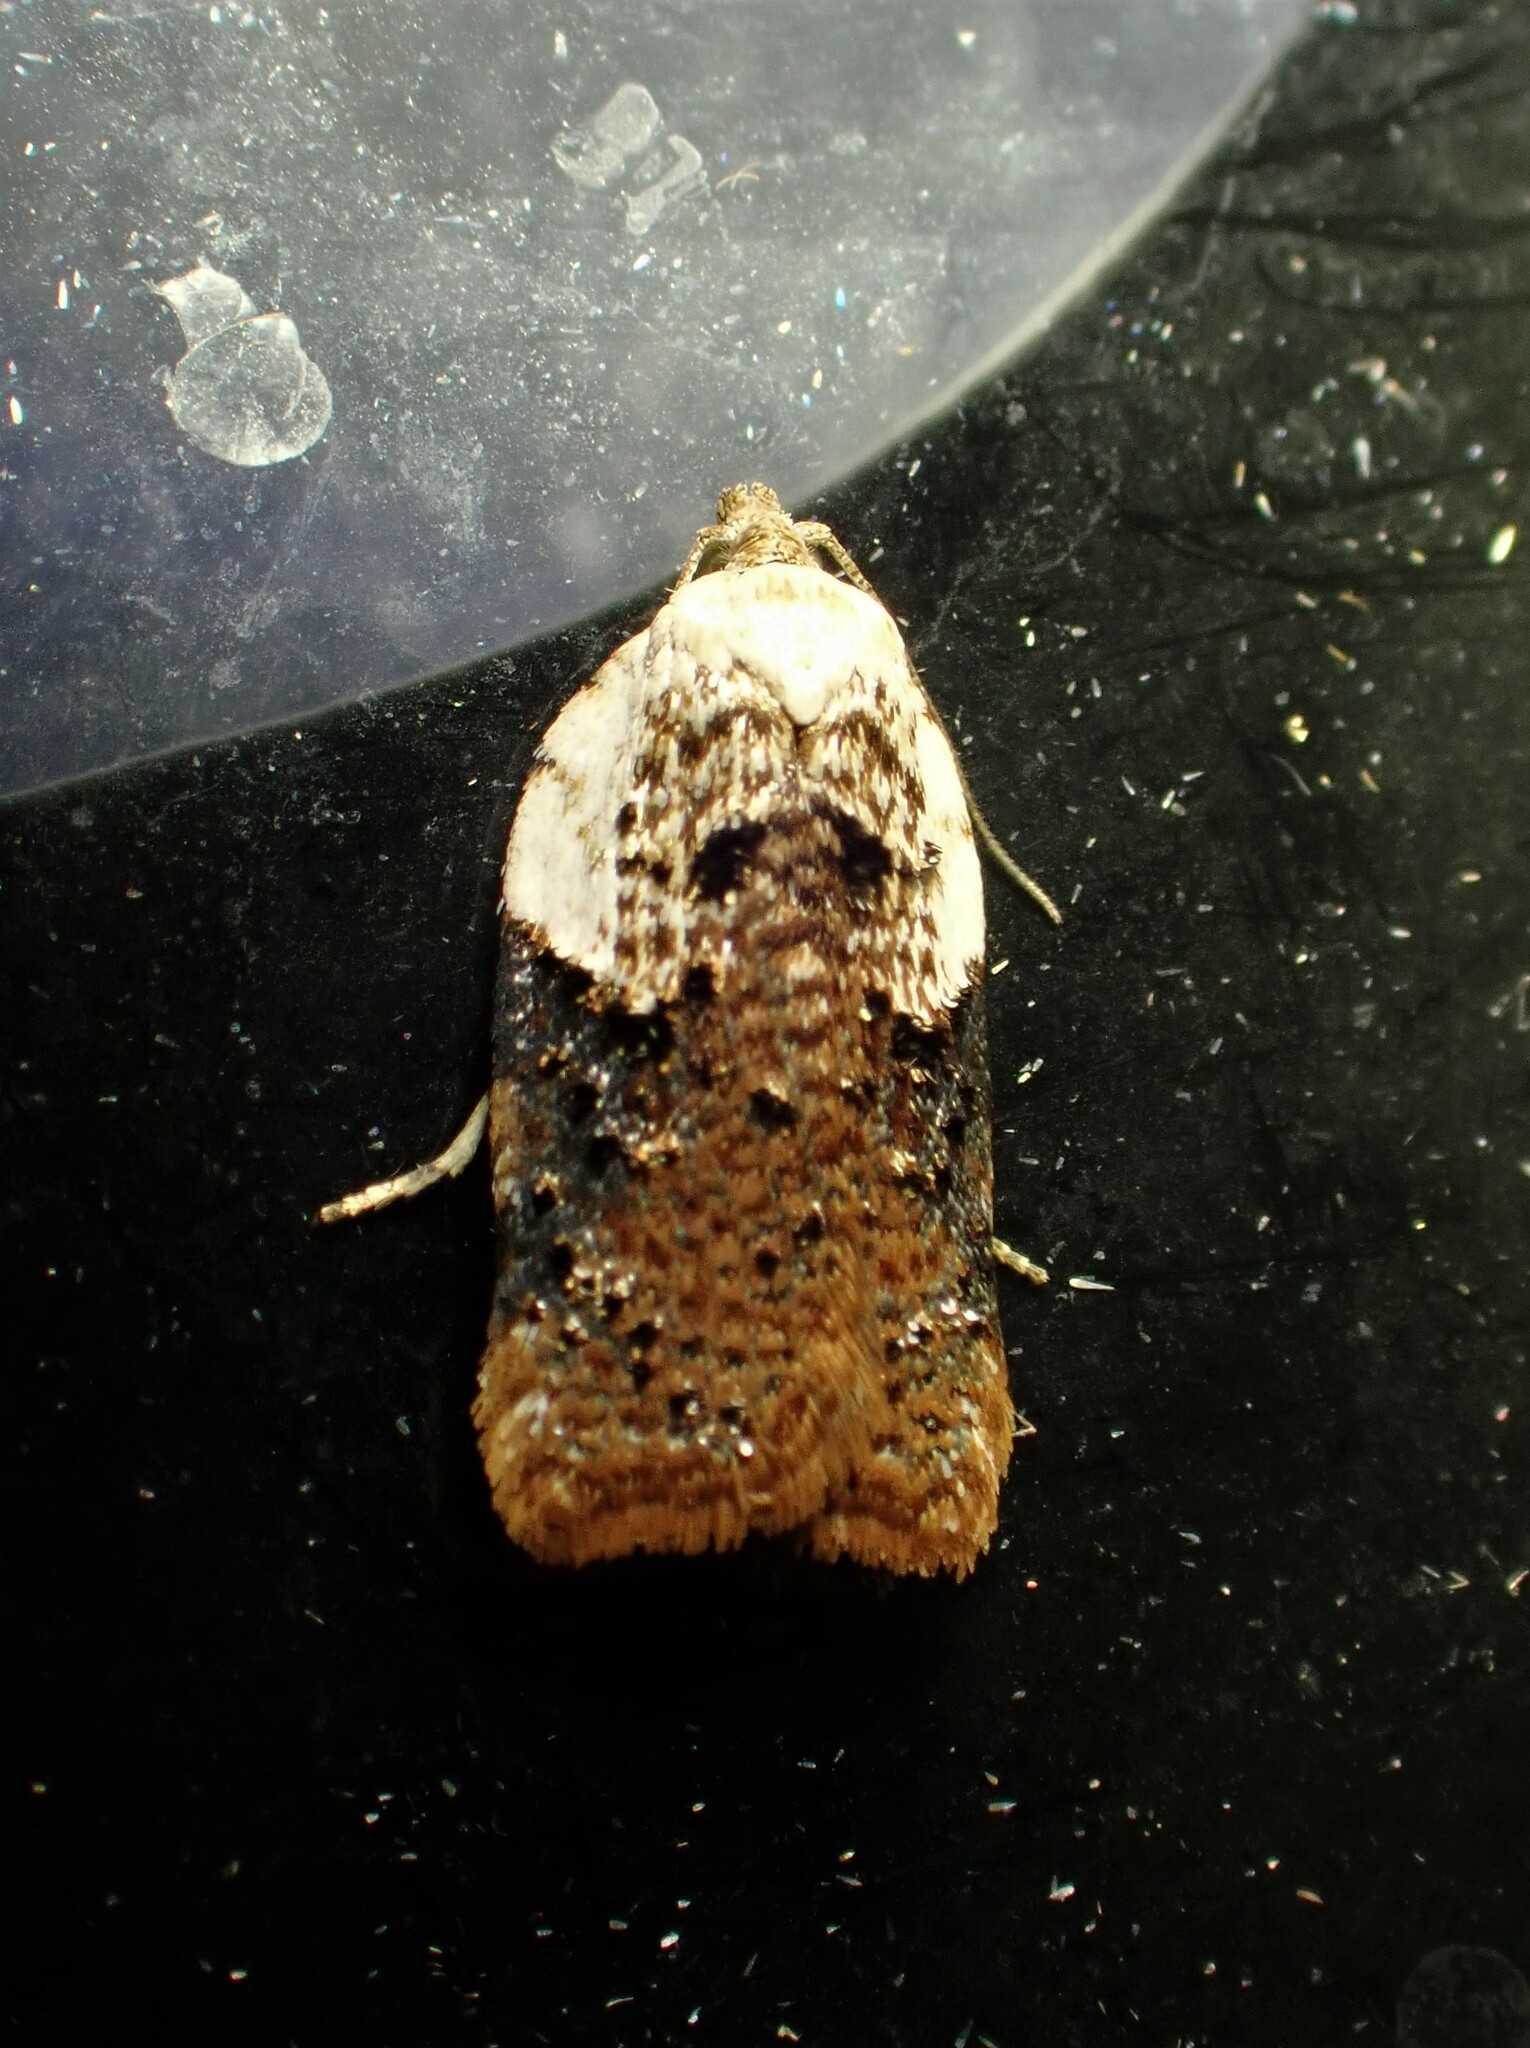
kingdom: Animalia
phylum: Arthropoda
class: Insecta
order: Lepidoptera
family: Tortricidae
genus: Acleris
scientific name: Acleris braunana
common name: Alder leafroller
